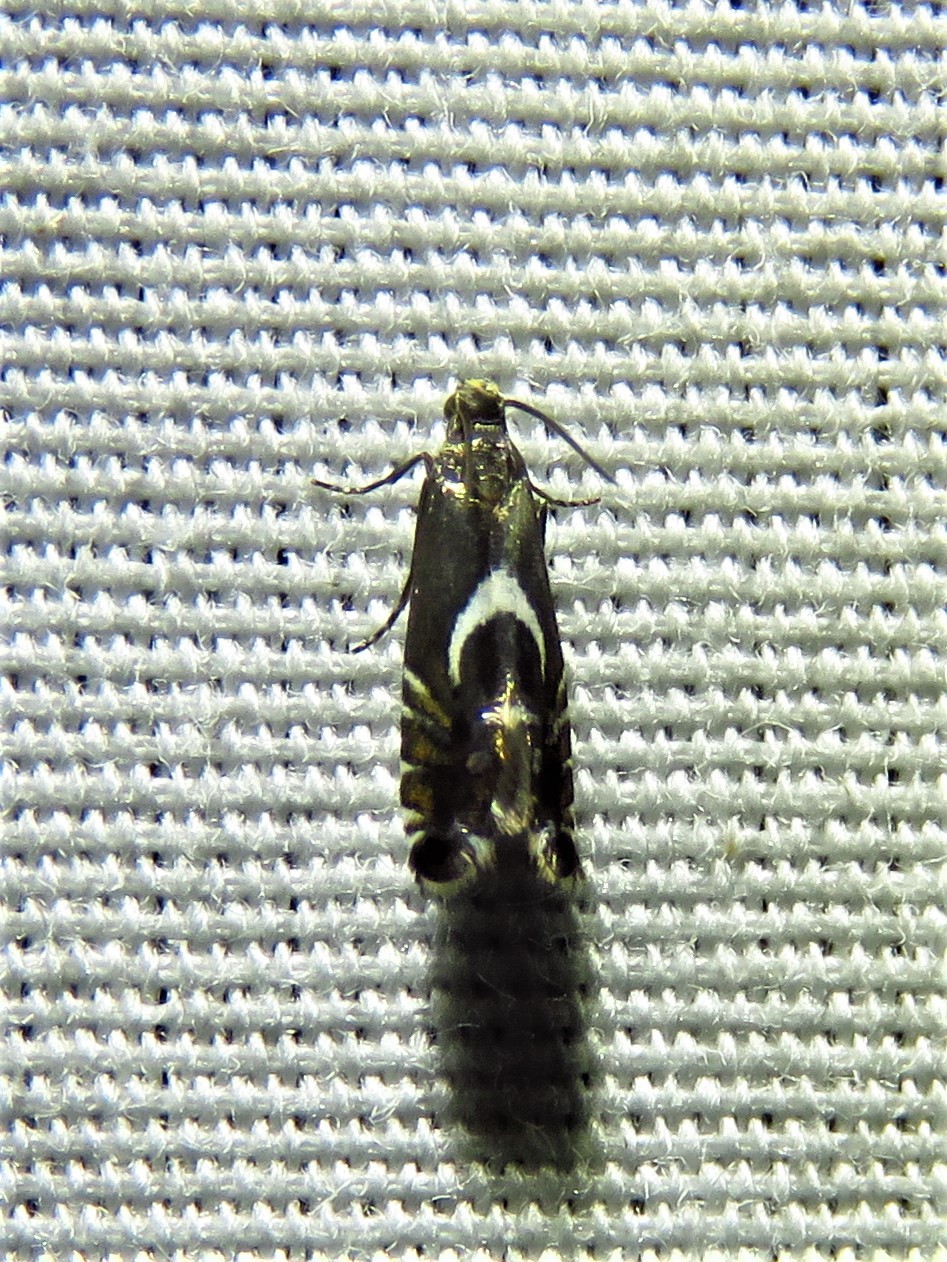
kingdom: Animalia
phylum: Arthropoda
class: Insecta
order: Lepidoptera
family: Glyphipterigidae
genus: Glyphipterix
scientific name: Glyphipterix Diploschizia impigritella
